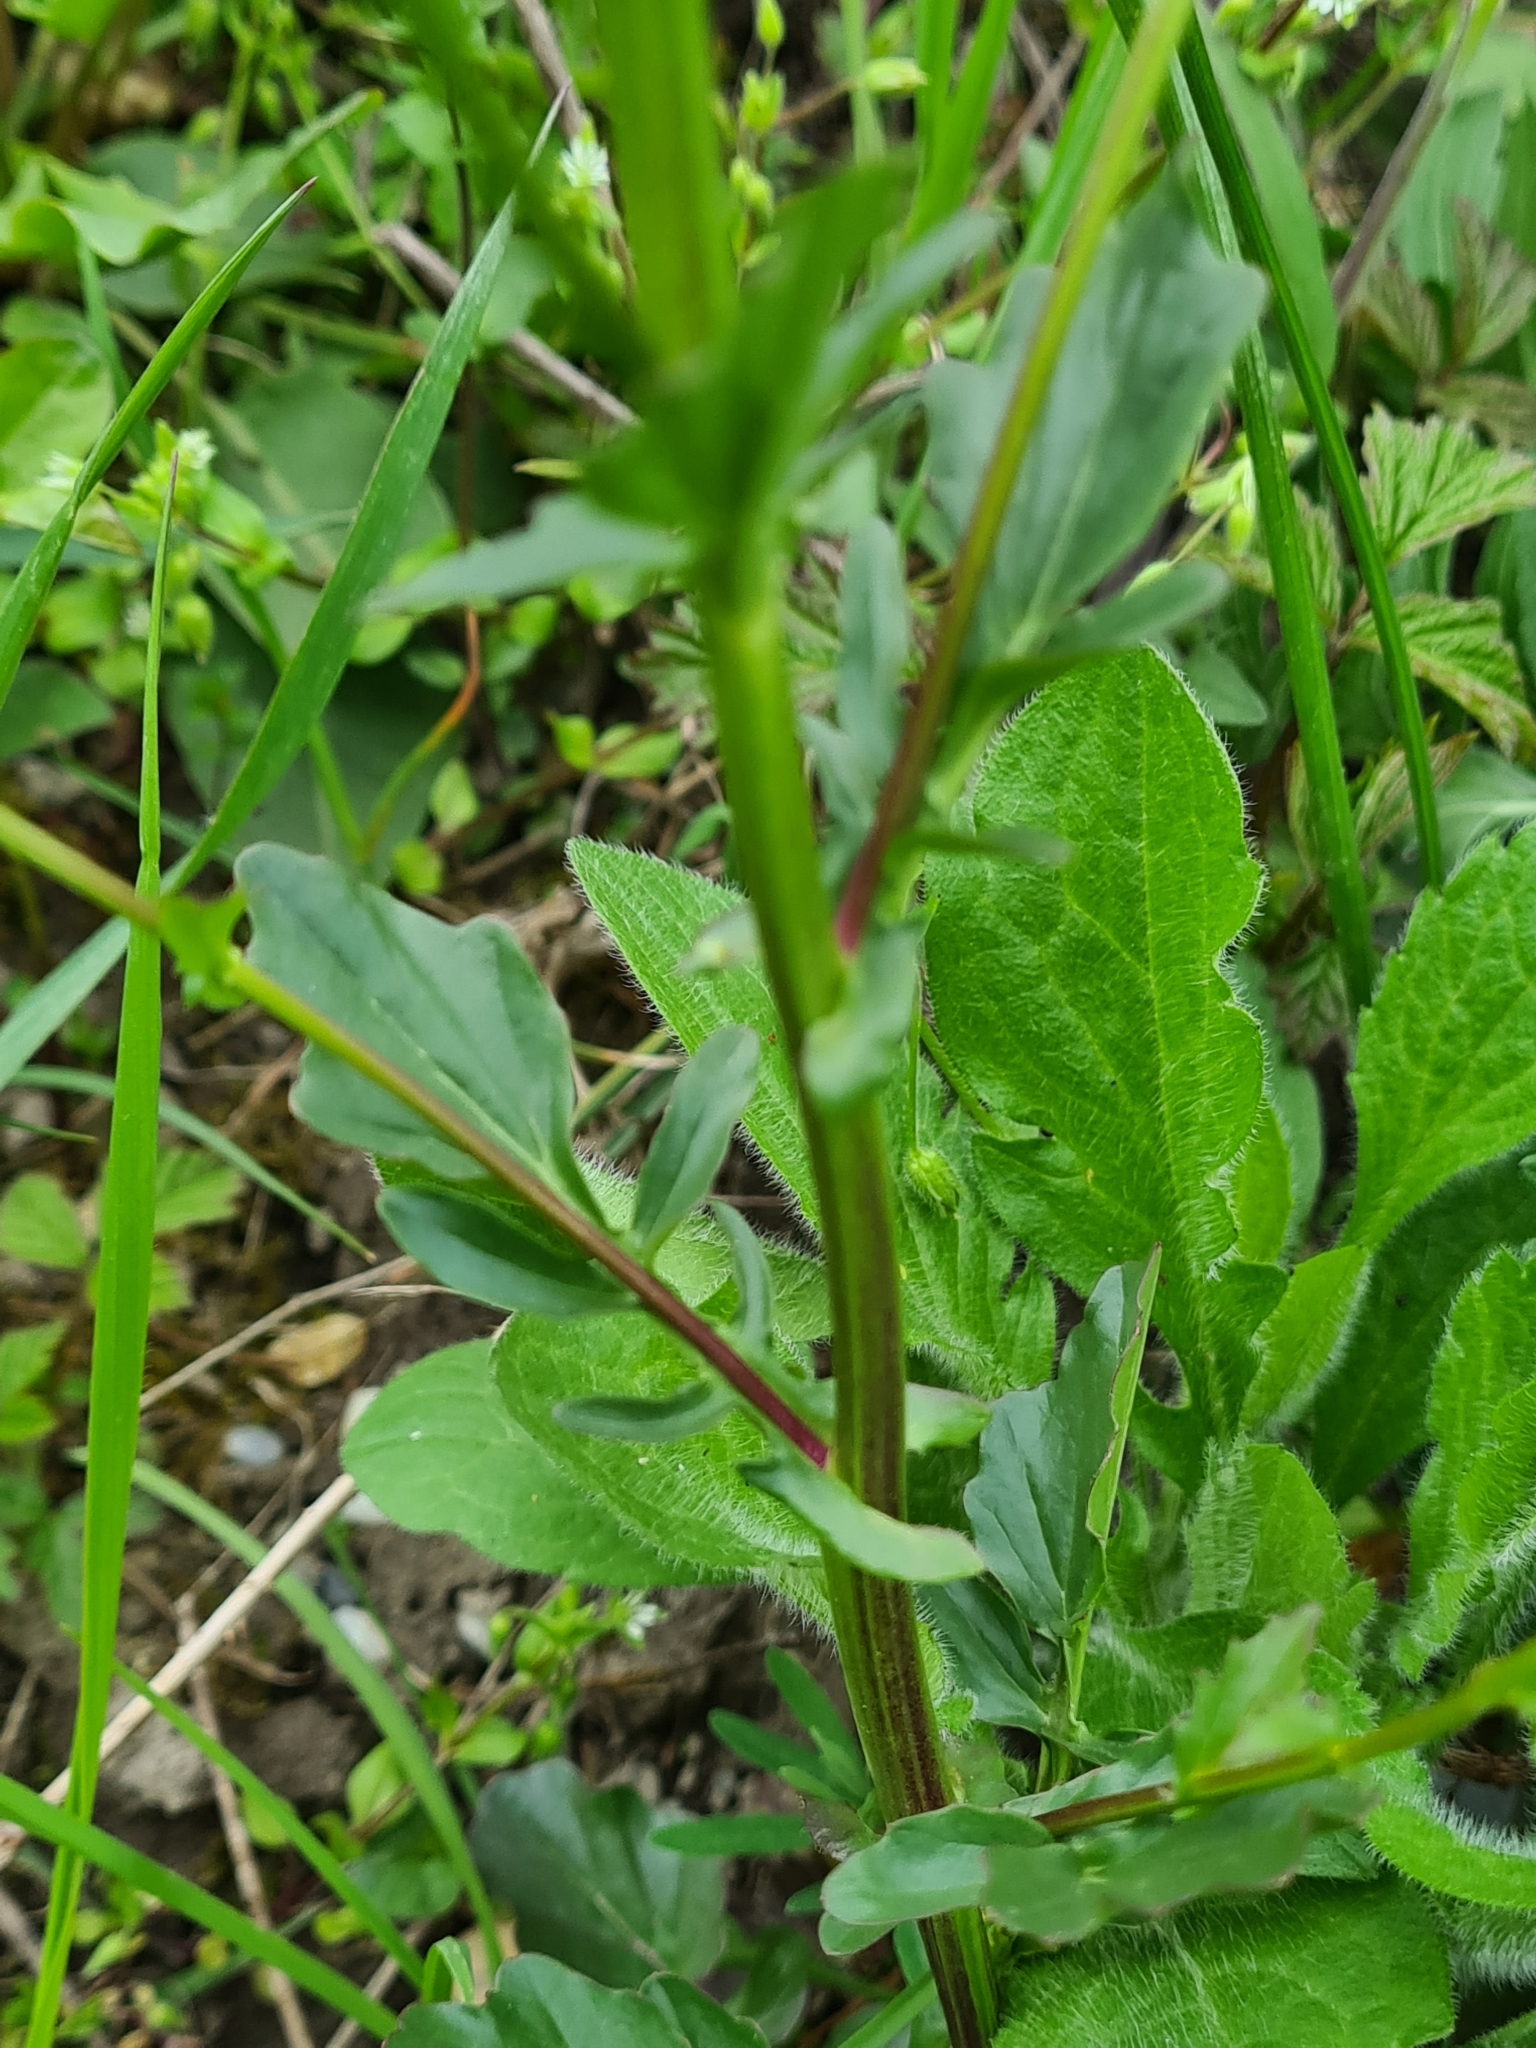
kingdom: Plantae
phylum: Tracheophyta
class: Magnoliopsida
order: Brassicales
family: Brassicaceae
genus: Barbarea
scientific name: Barbarea vulgaris
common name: Cressy-greens
